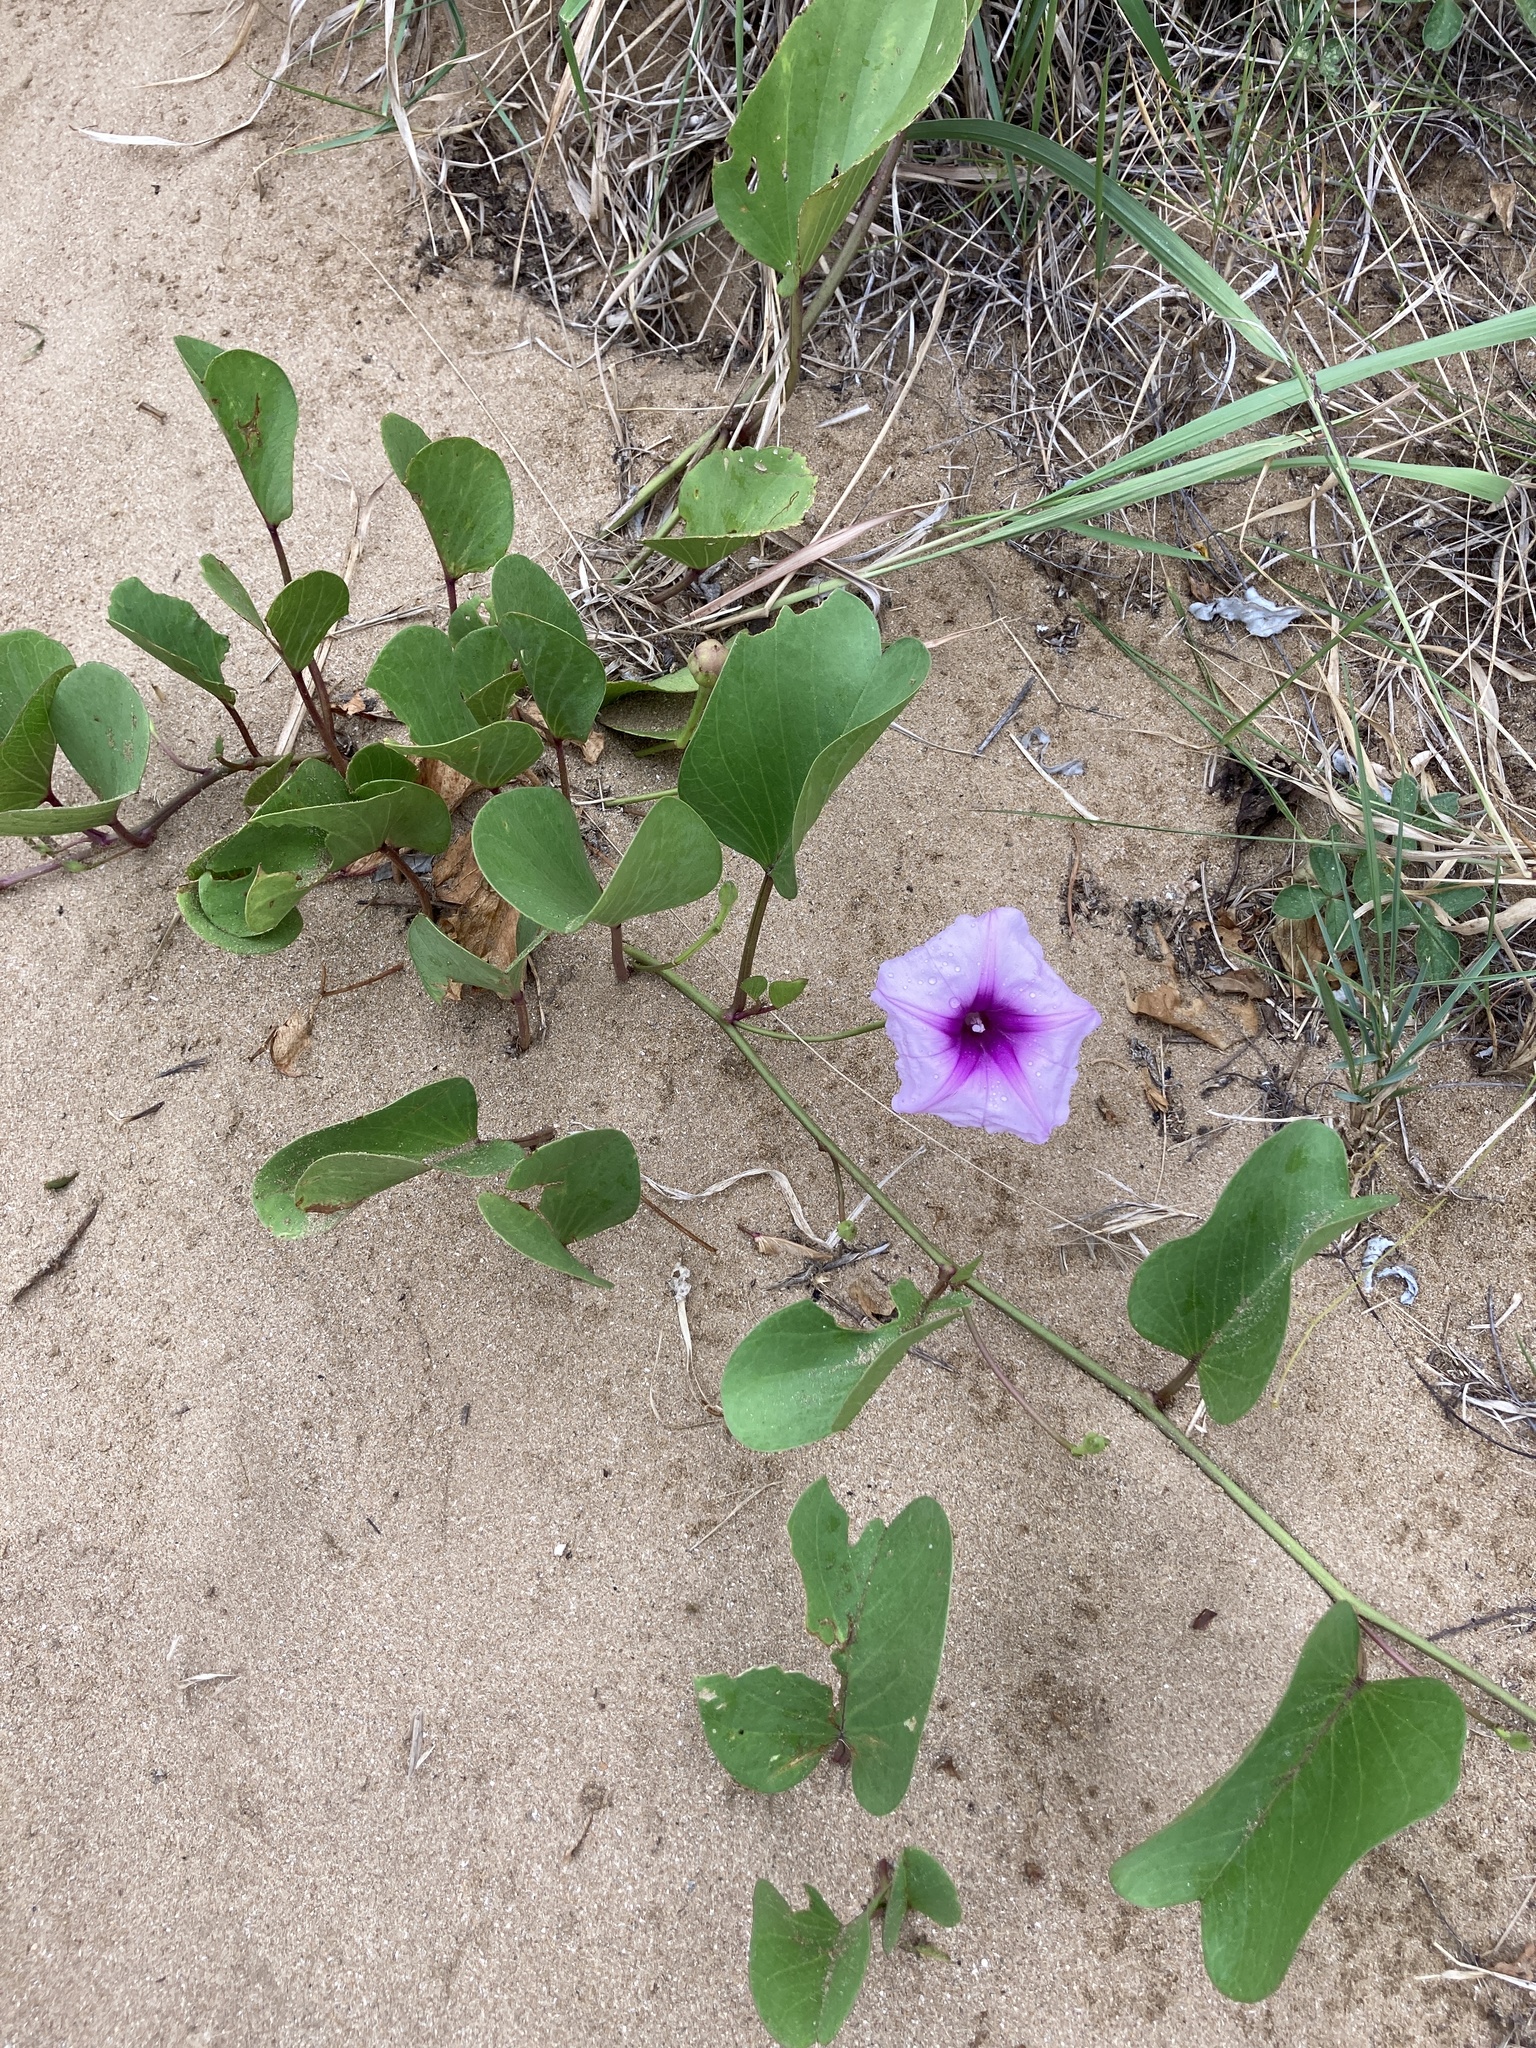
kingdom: Plantae
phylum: Tracheophyta
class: Magnoliopsida
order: Solanales
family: Convolvulaceae
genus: Ipomoea
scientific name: Ipomoea pes-caprae
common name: Beach morning glory
